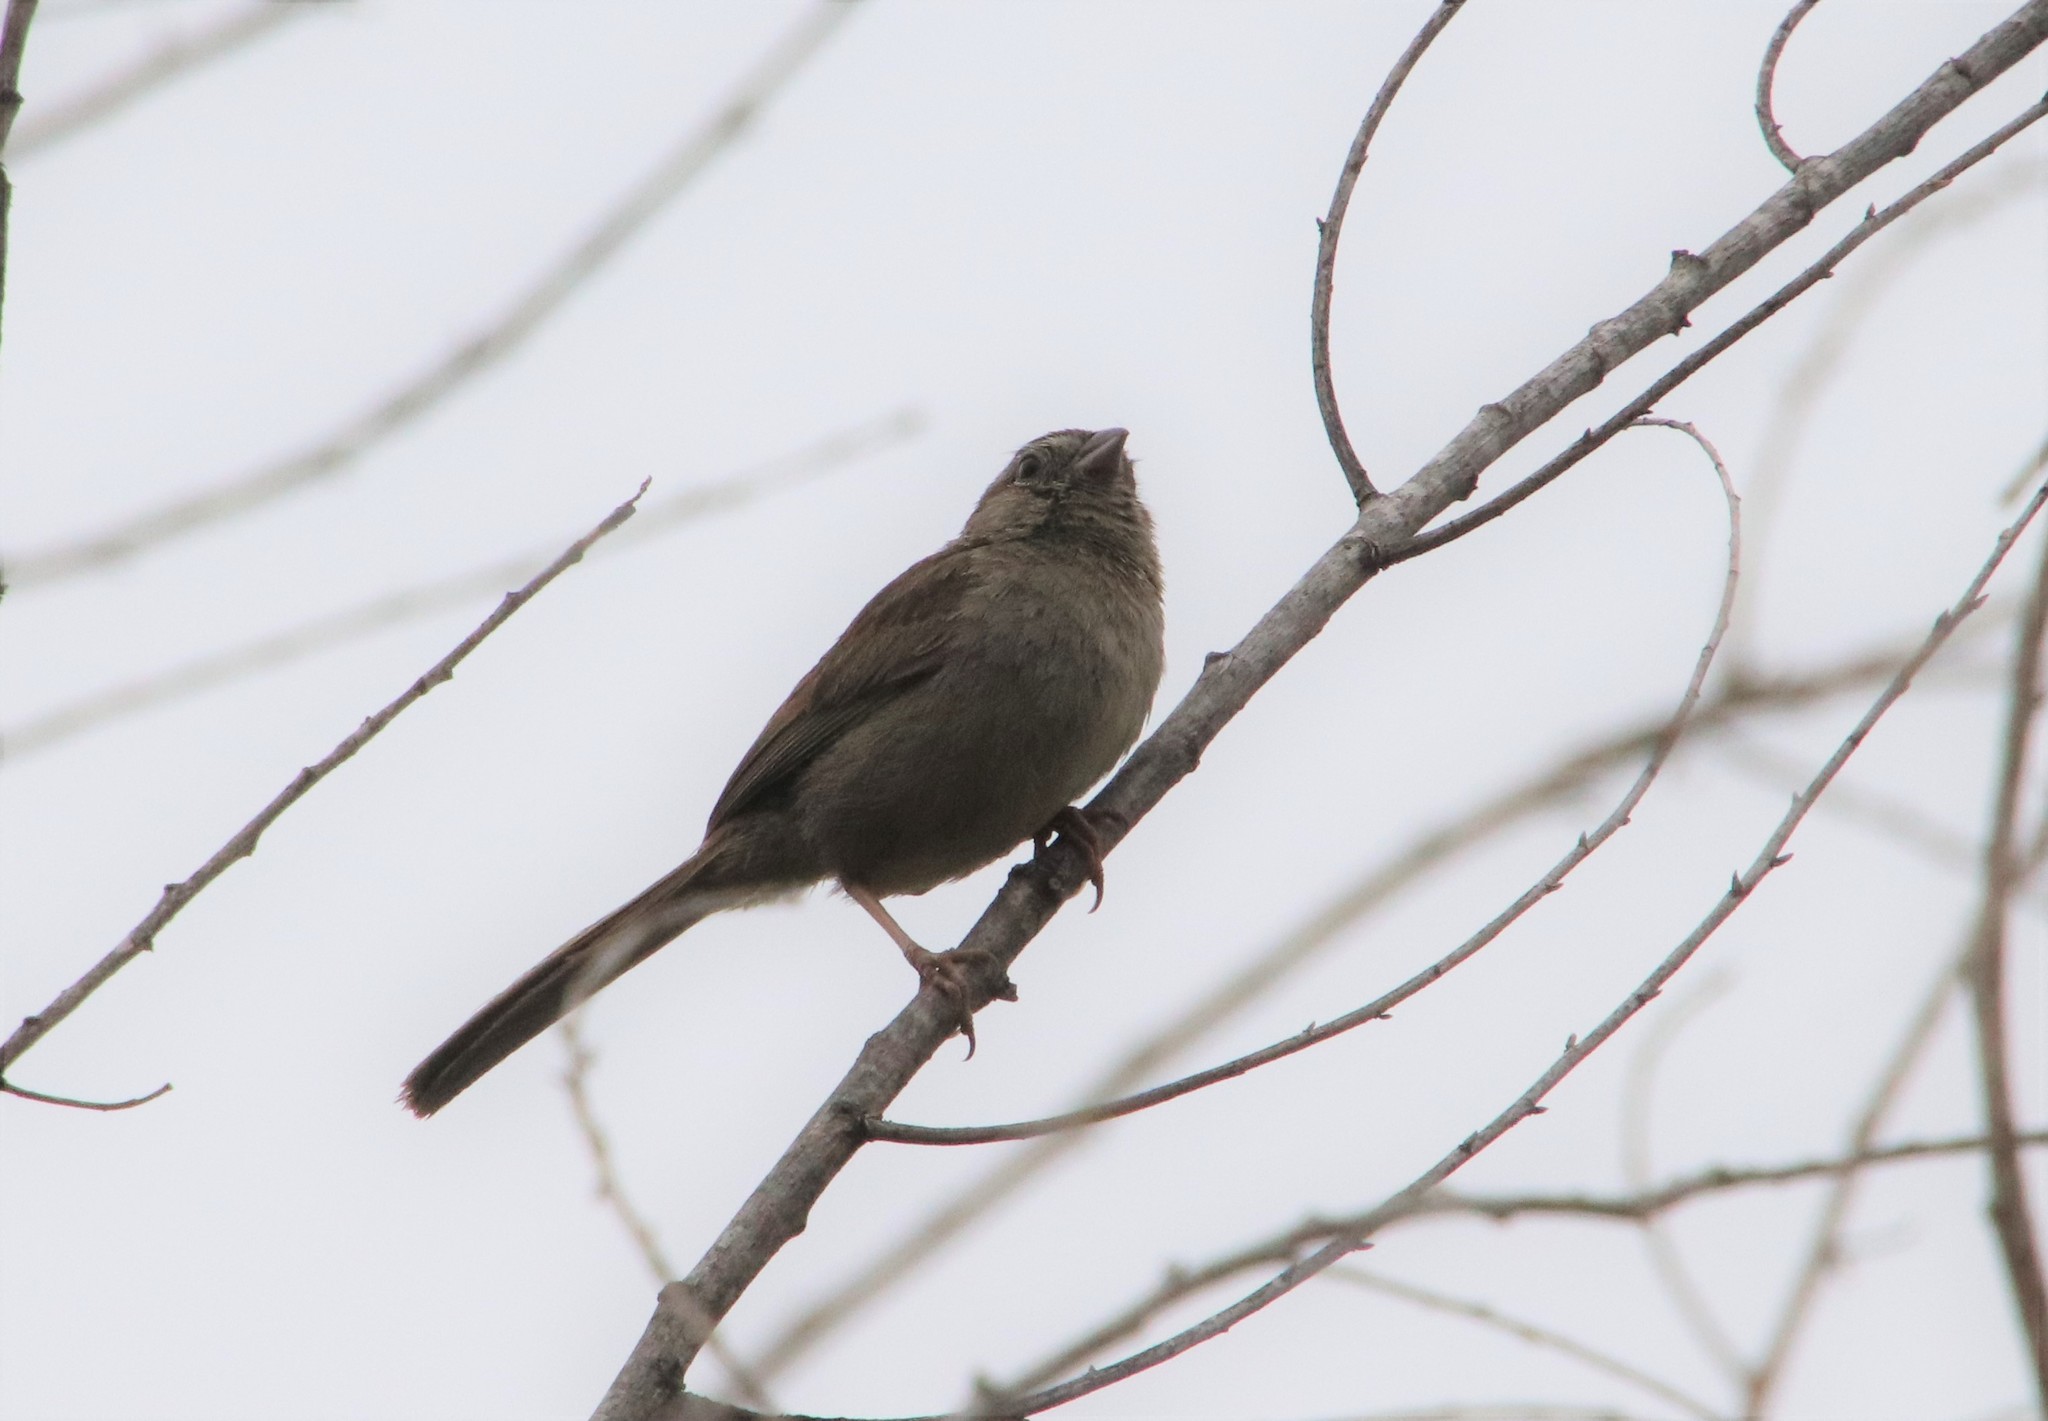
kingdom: Animalia
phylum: Chordata
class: Aves
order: Passeriformes
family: Passerellidae
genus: Aimophila
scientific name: Aimophila ruficeps
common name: Rufous-crowned sparrow
